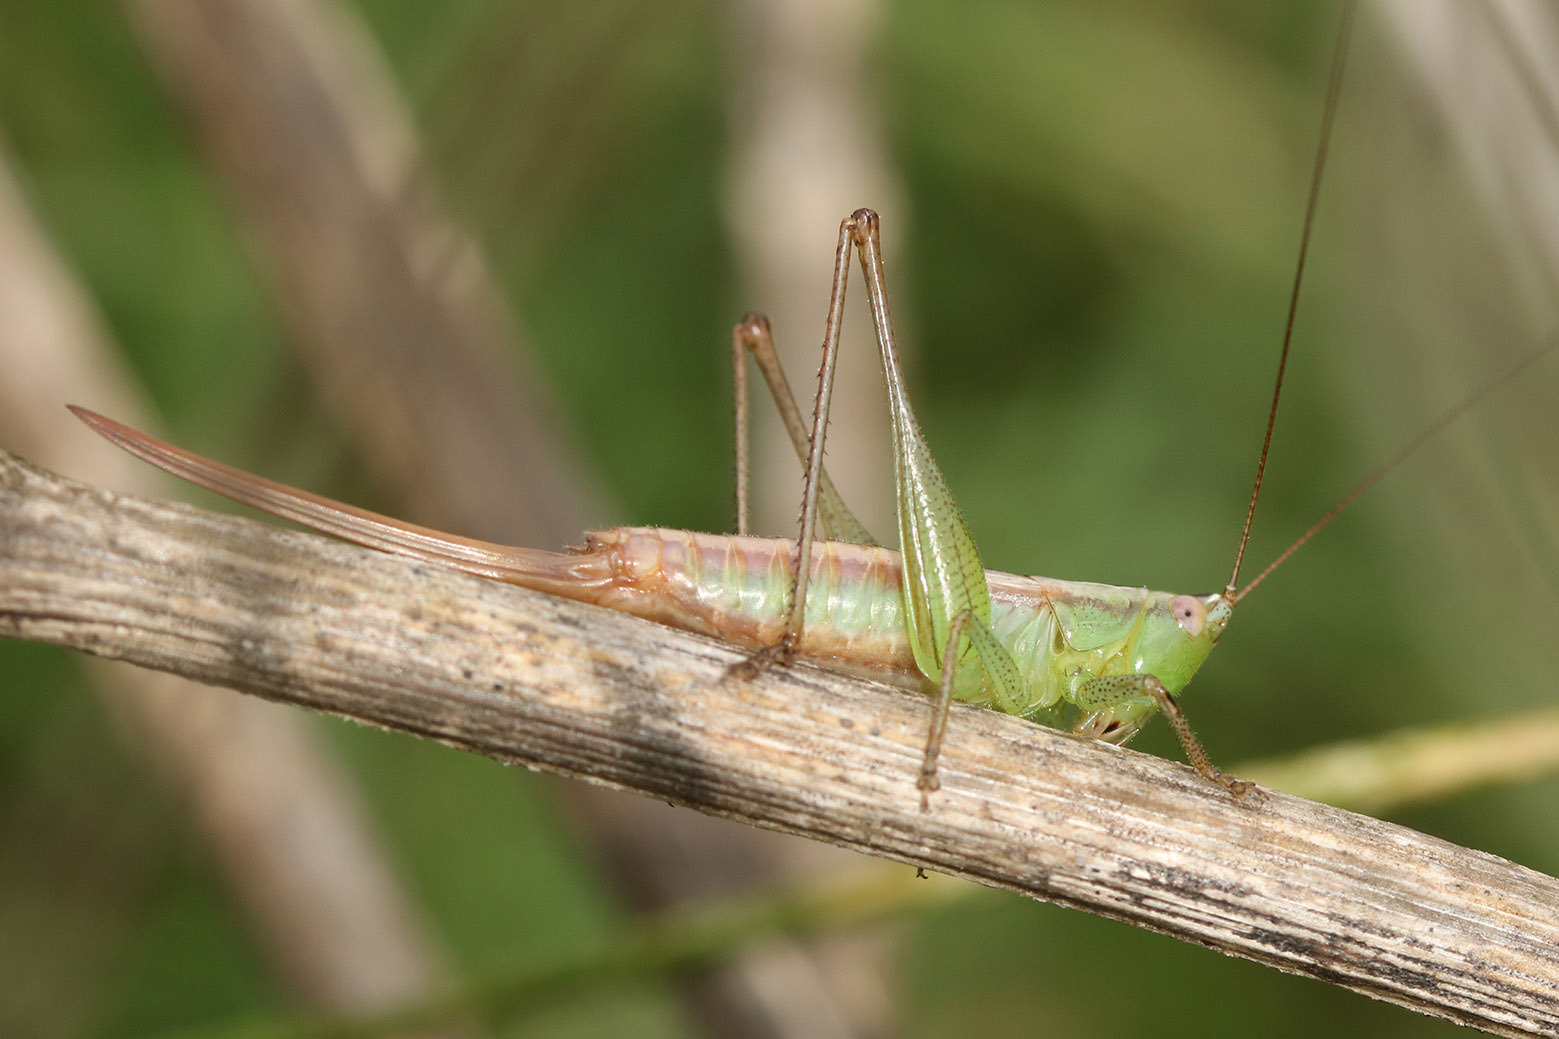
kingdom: Animalia
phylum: Arthropoda
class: Insecta
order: Orthoptera
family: Tettigoniidae
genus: Conocephalus
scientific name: Conocephalus doryphorus
